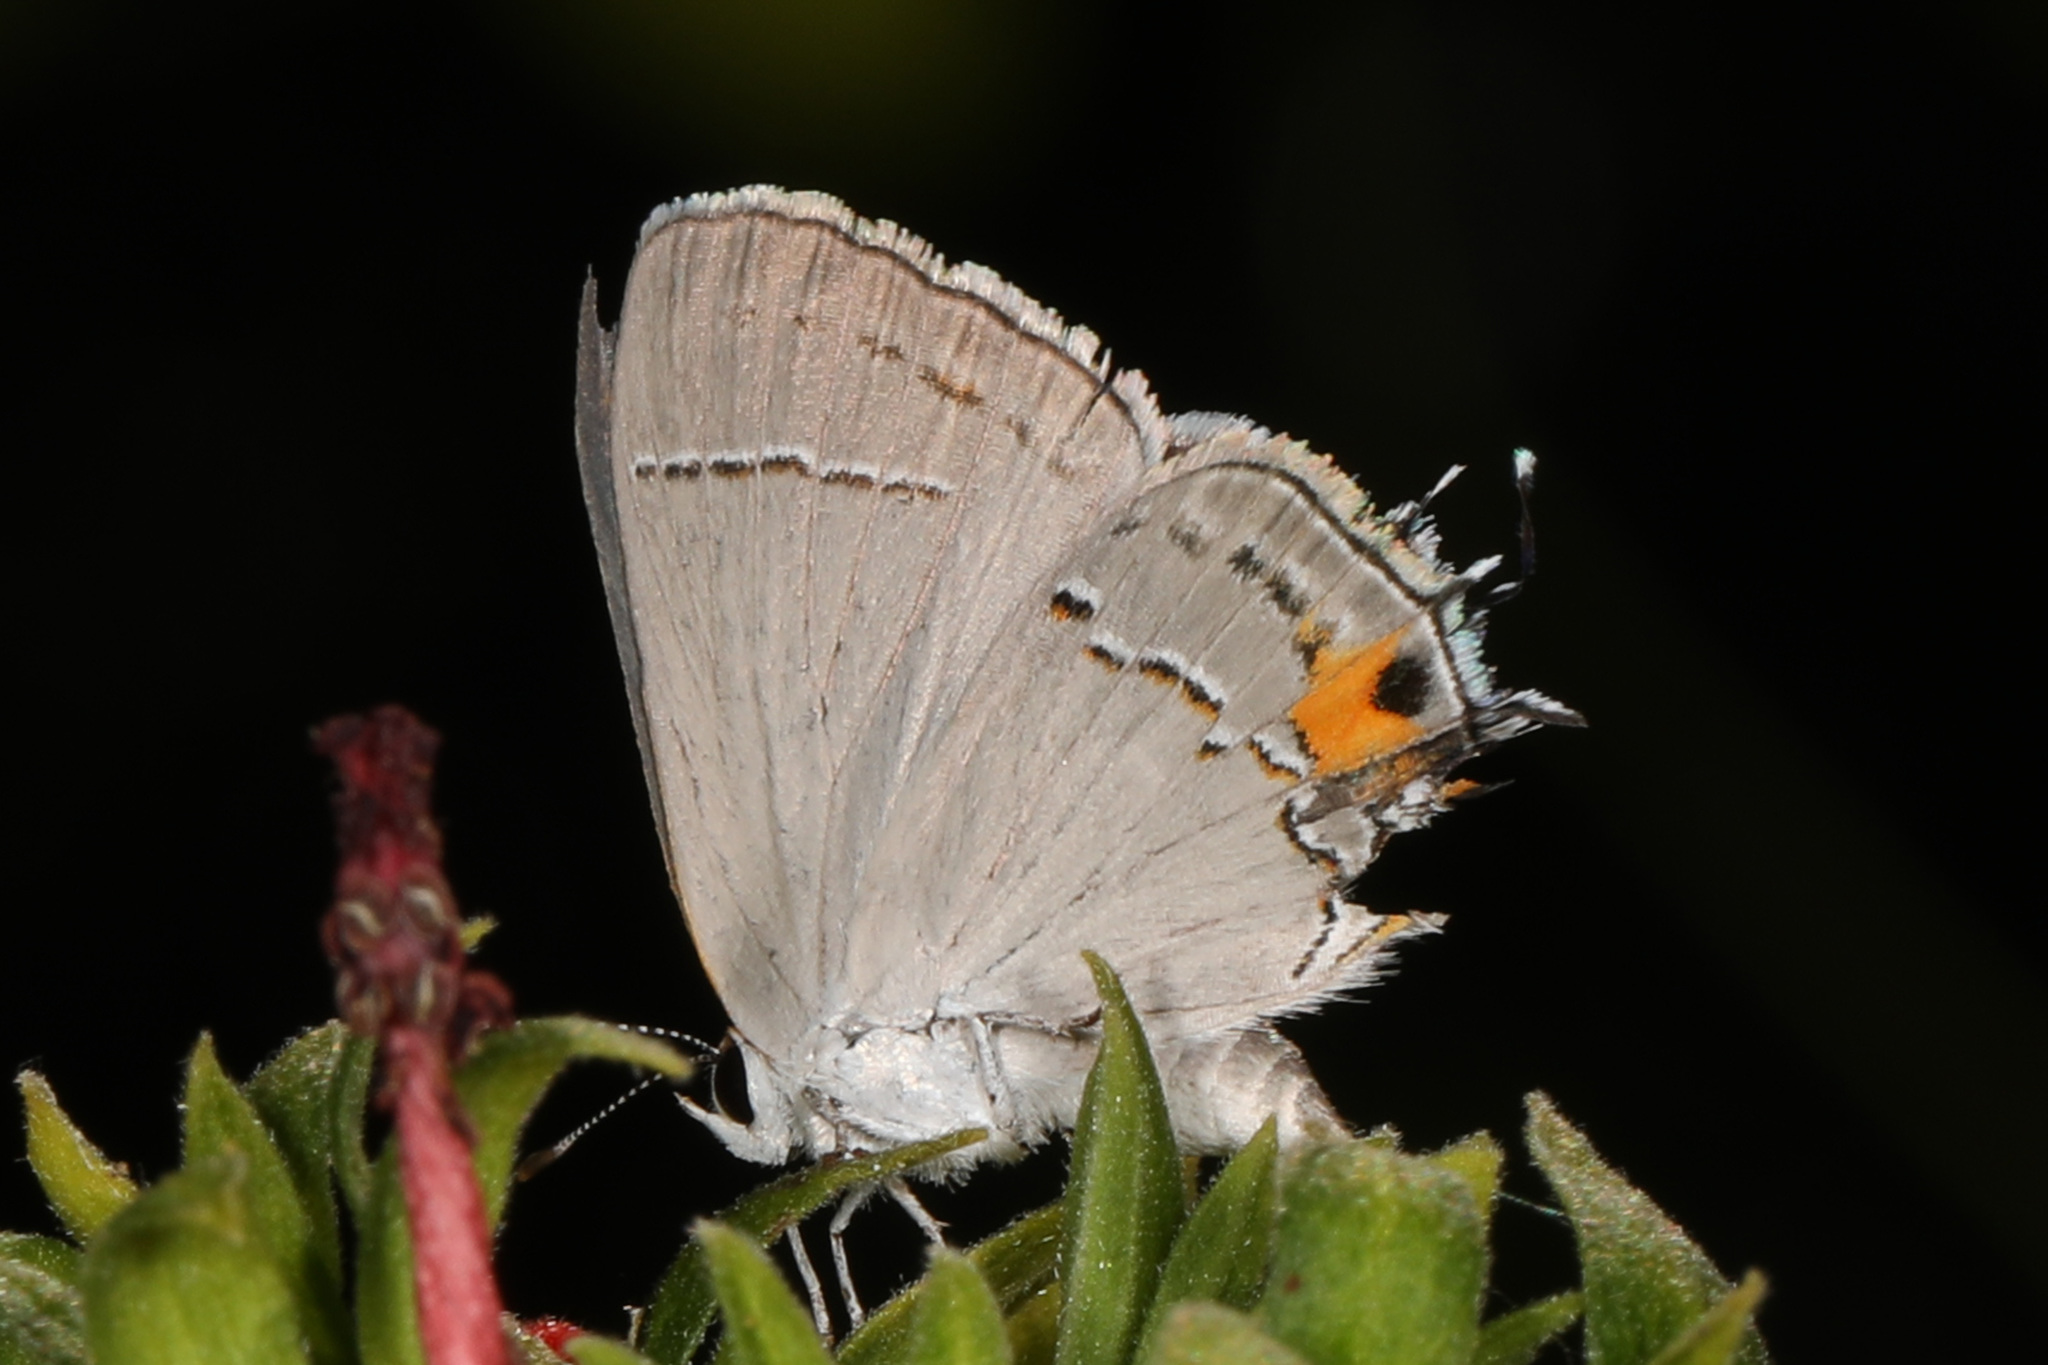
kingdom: Animalia
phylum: Arthropoda
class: Insecta
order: Lepidoptera
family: Lycaenidae
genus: Strymon
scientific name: Strymon melinus
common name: Gray hairstreak
